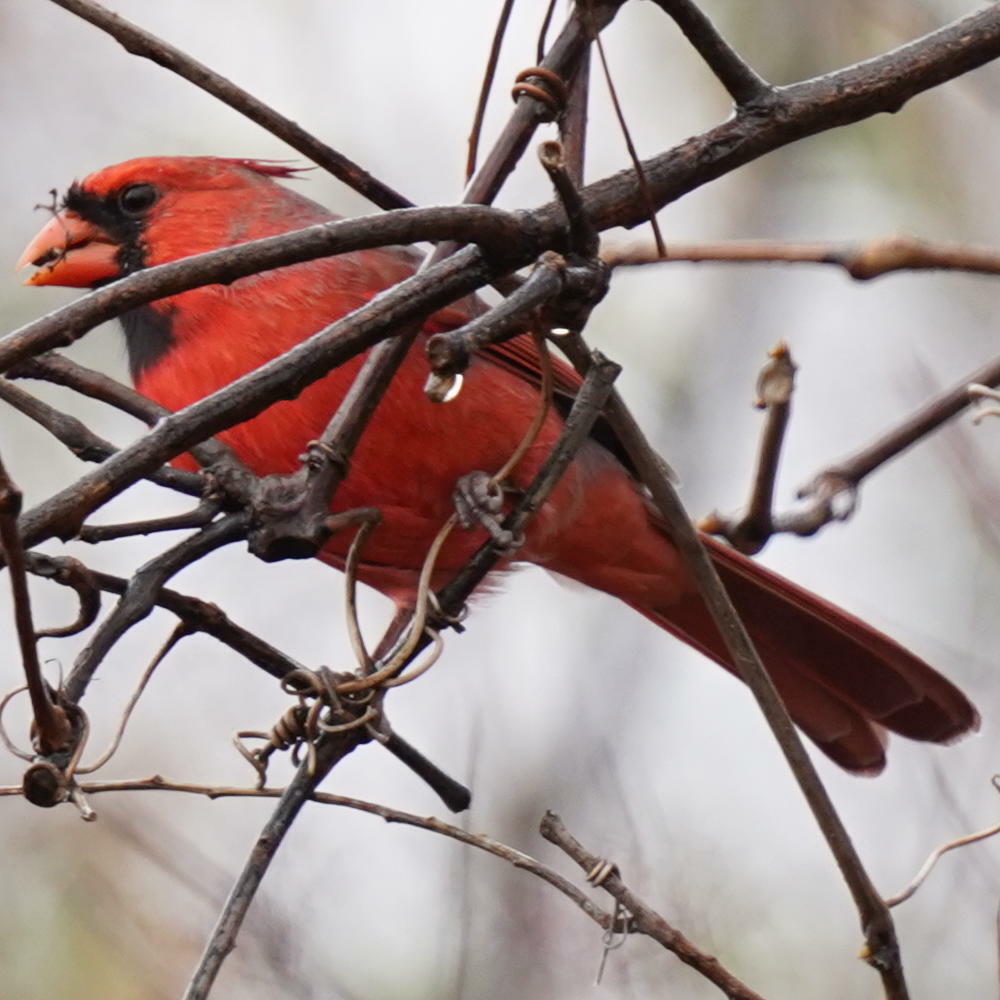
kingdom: Animalia
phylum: Chordata
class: Aves
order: Passeriformes
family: Cardinalidae
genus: Cardinalis
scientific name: Cardinalis cardinalis
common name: Northern cardinal
